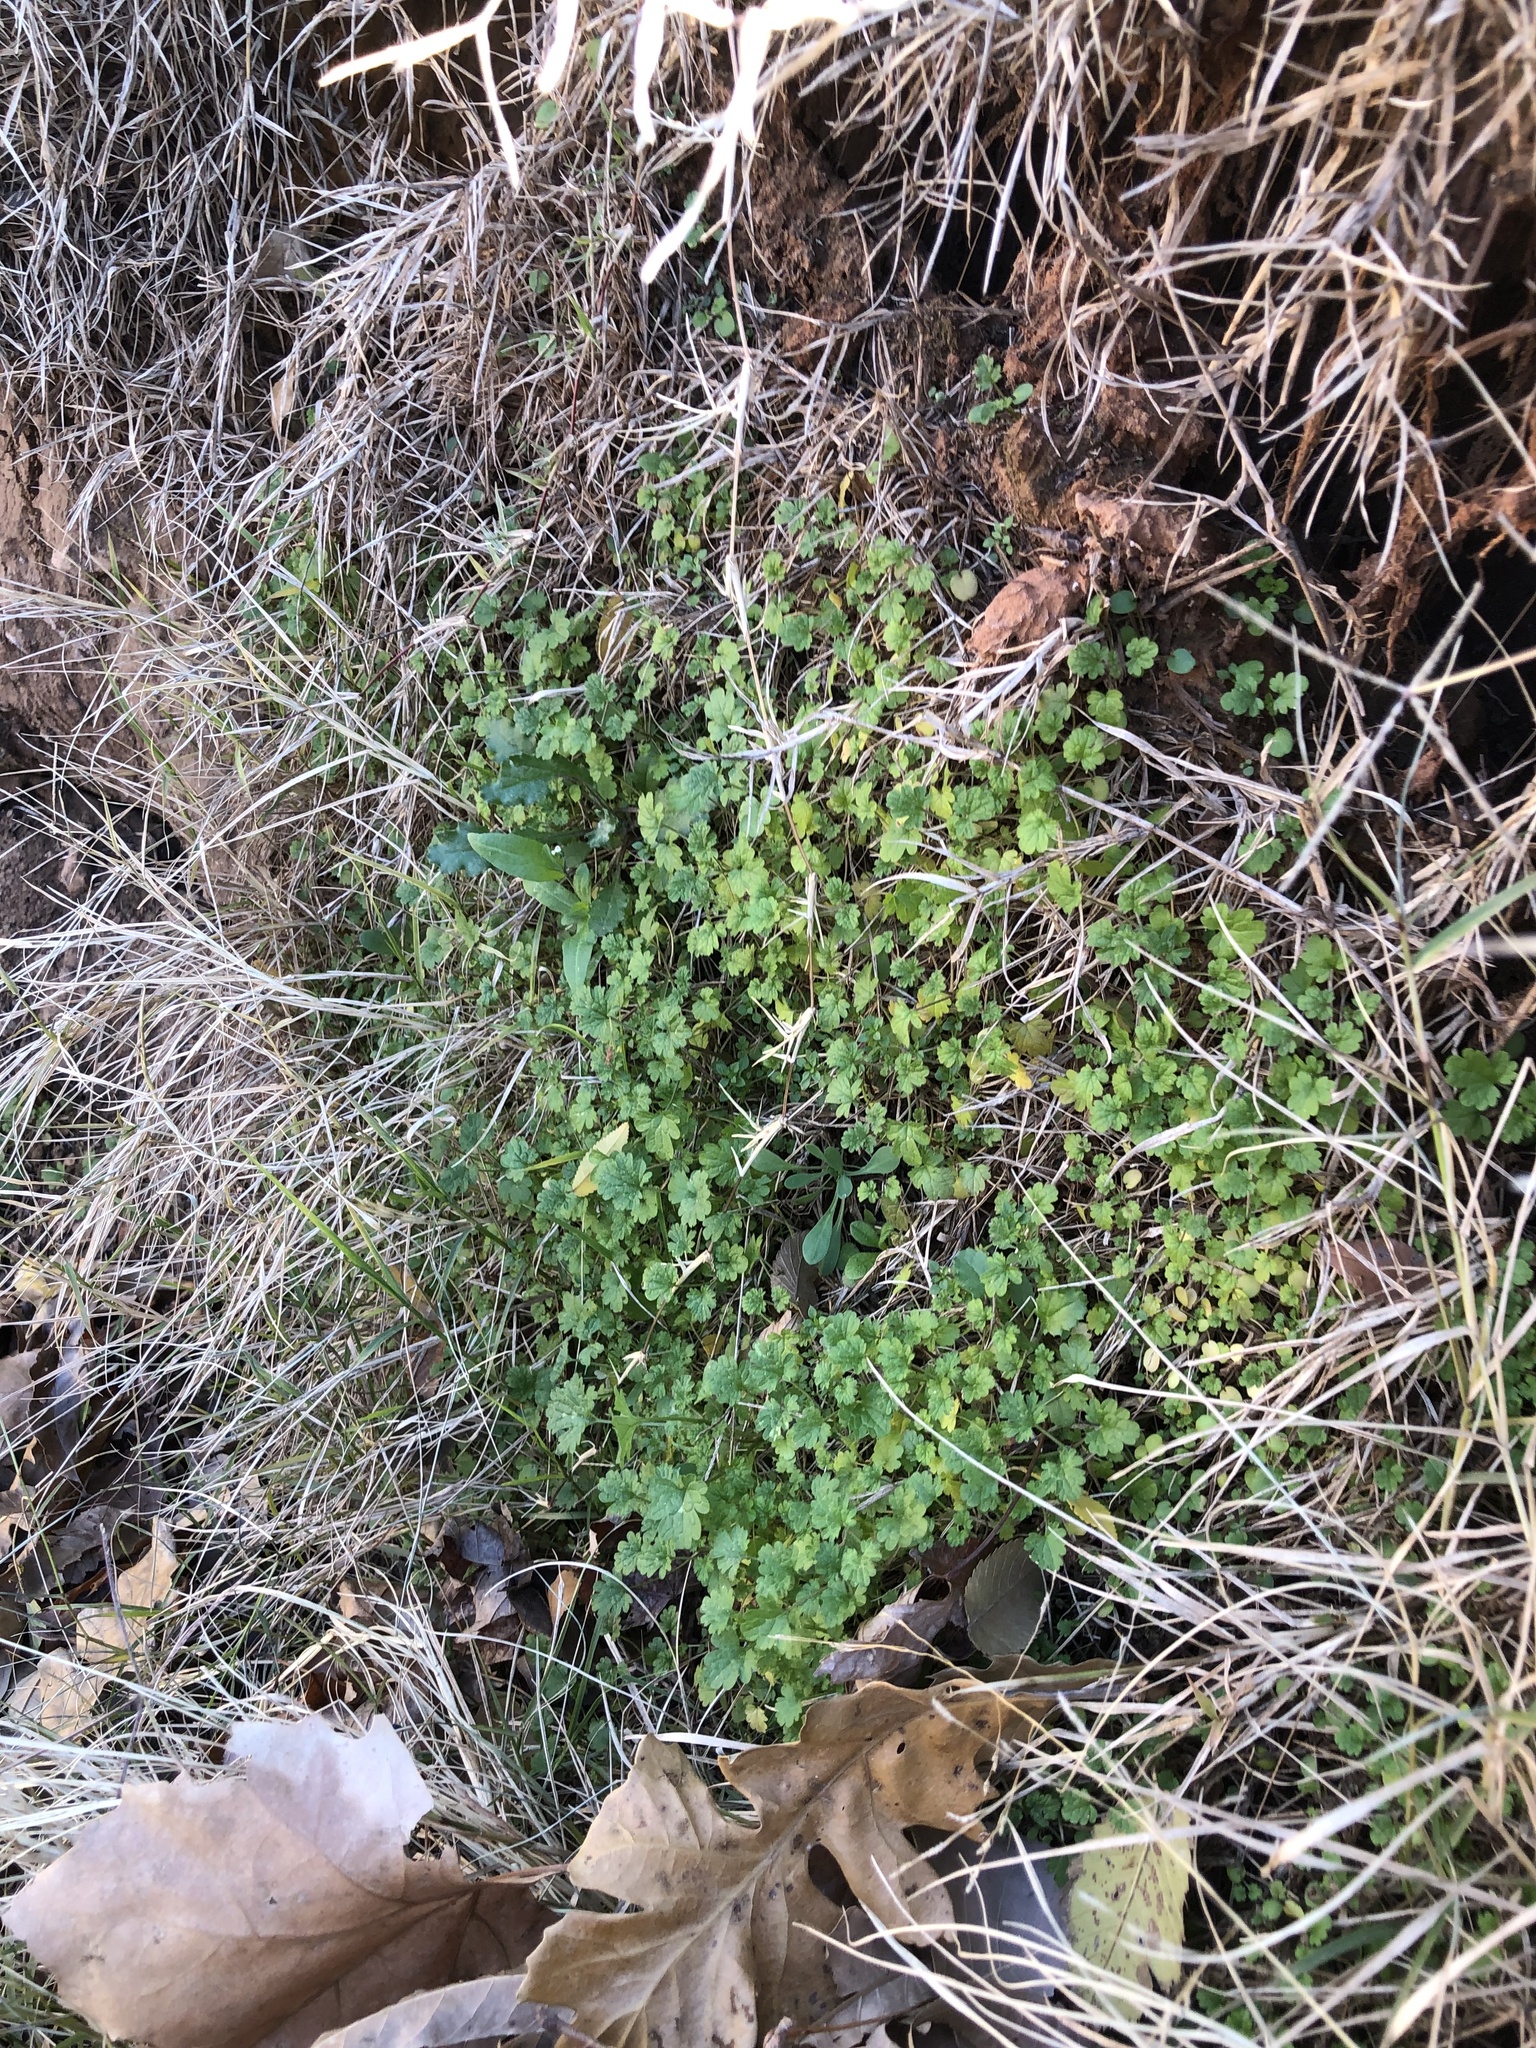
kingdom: Plantae
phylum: Tracheophyta
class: Magnoliopsida
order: Lamiales
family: Lamiaceae
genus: Lamium
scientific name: Lamium amplexicaule
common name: Henbit dead-nettle
